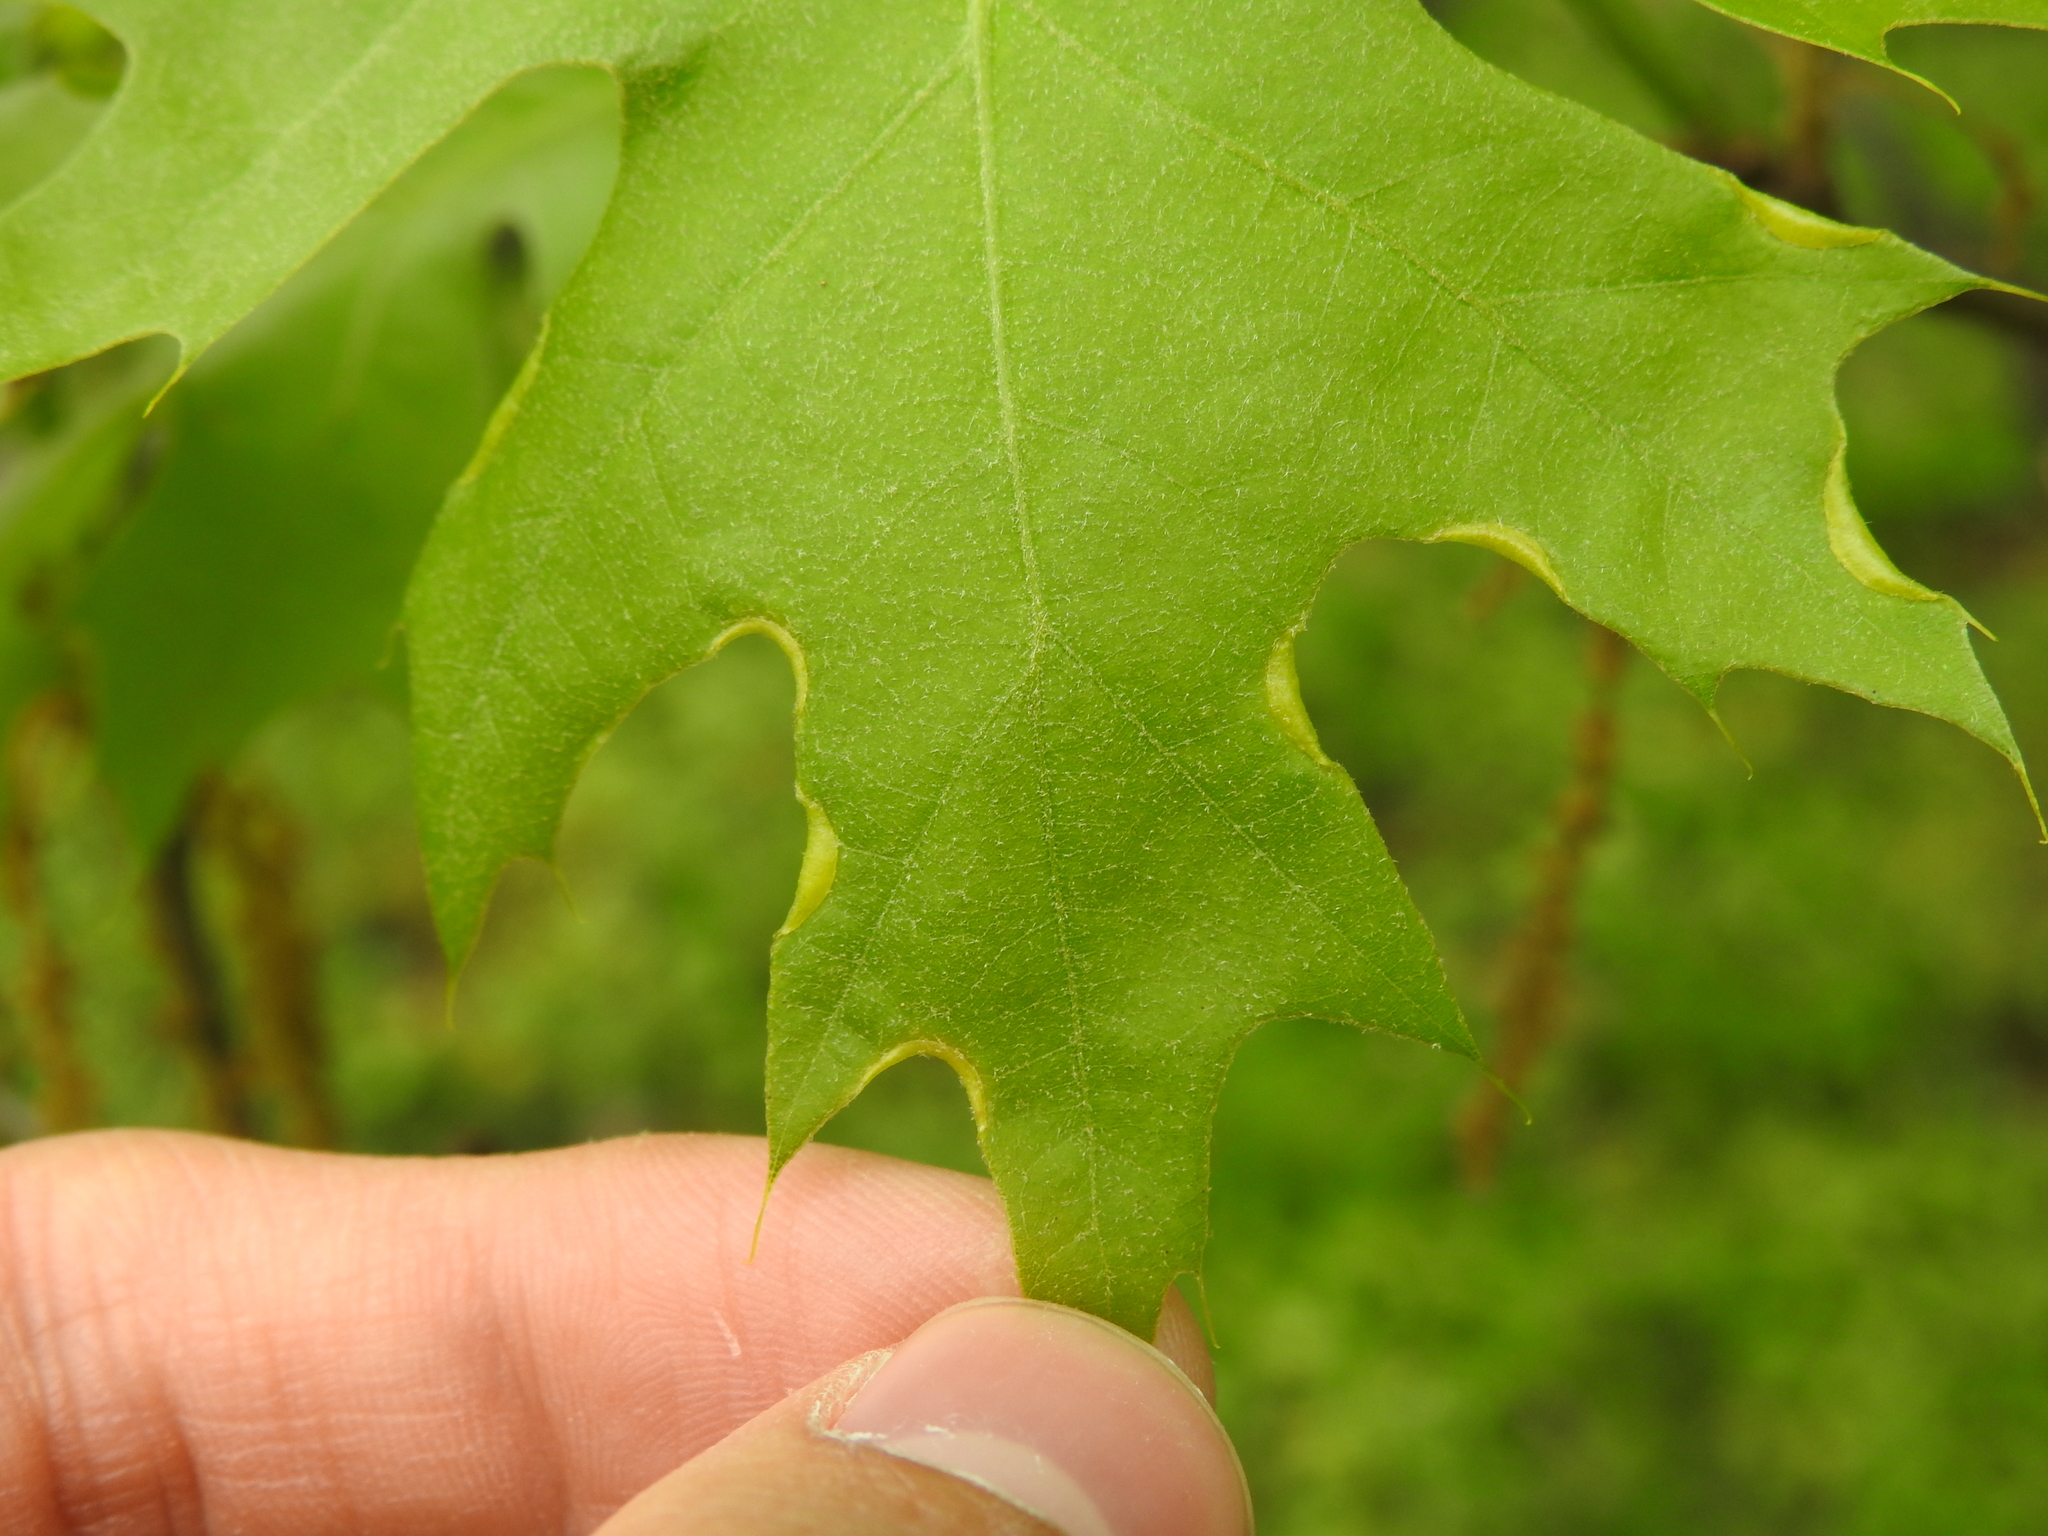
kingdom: Animalia
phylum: Arthropoda
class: Insecta
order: Diptera
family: Cecidomyiidae
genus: Macrodiplosis
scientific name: Macrodiplosis erubescens
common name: Marginal leaf fold gall midge
